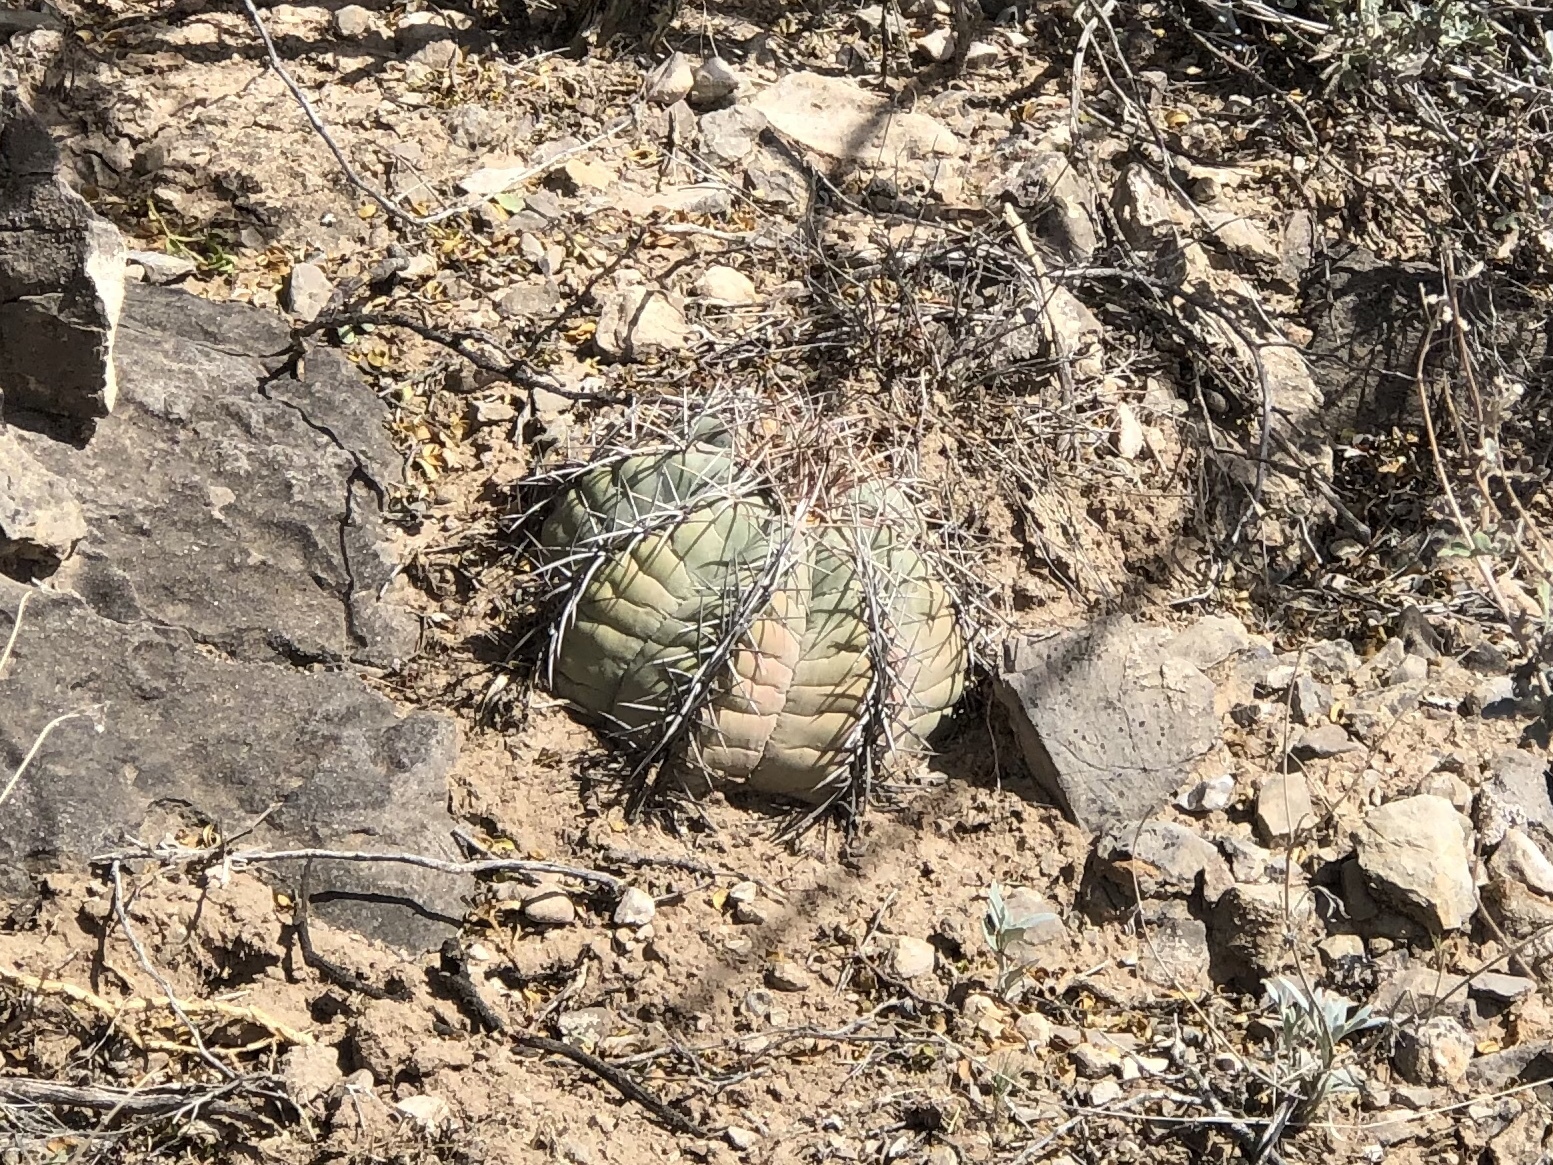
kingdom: Plantae
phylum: Tracheophyta
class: Magnoliopsida
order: Caryophyllales
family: Cactaceae
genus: Echinocactus
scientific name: Echinocactus horizonthalonius
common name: Devilshead
